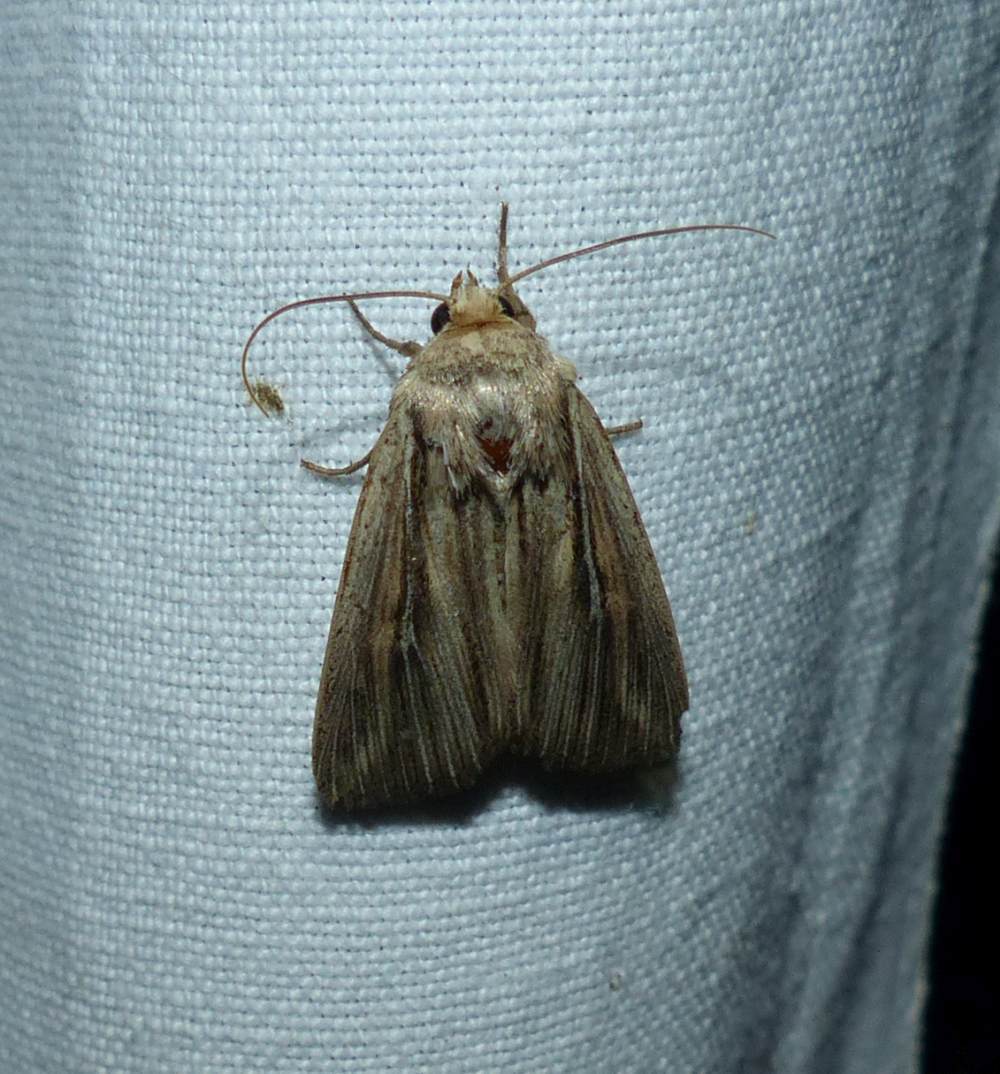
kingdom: Animalia
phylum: Arthropoda
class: Insecta
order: Lepidoptera
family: Noctuidae
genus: Leucania
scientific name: Leucania insueta
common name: Heterodox wainscot moth
